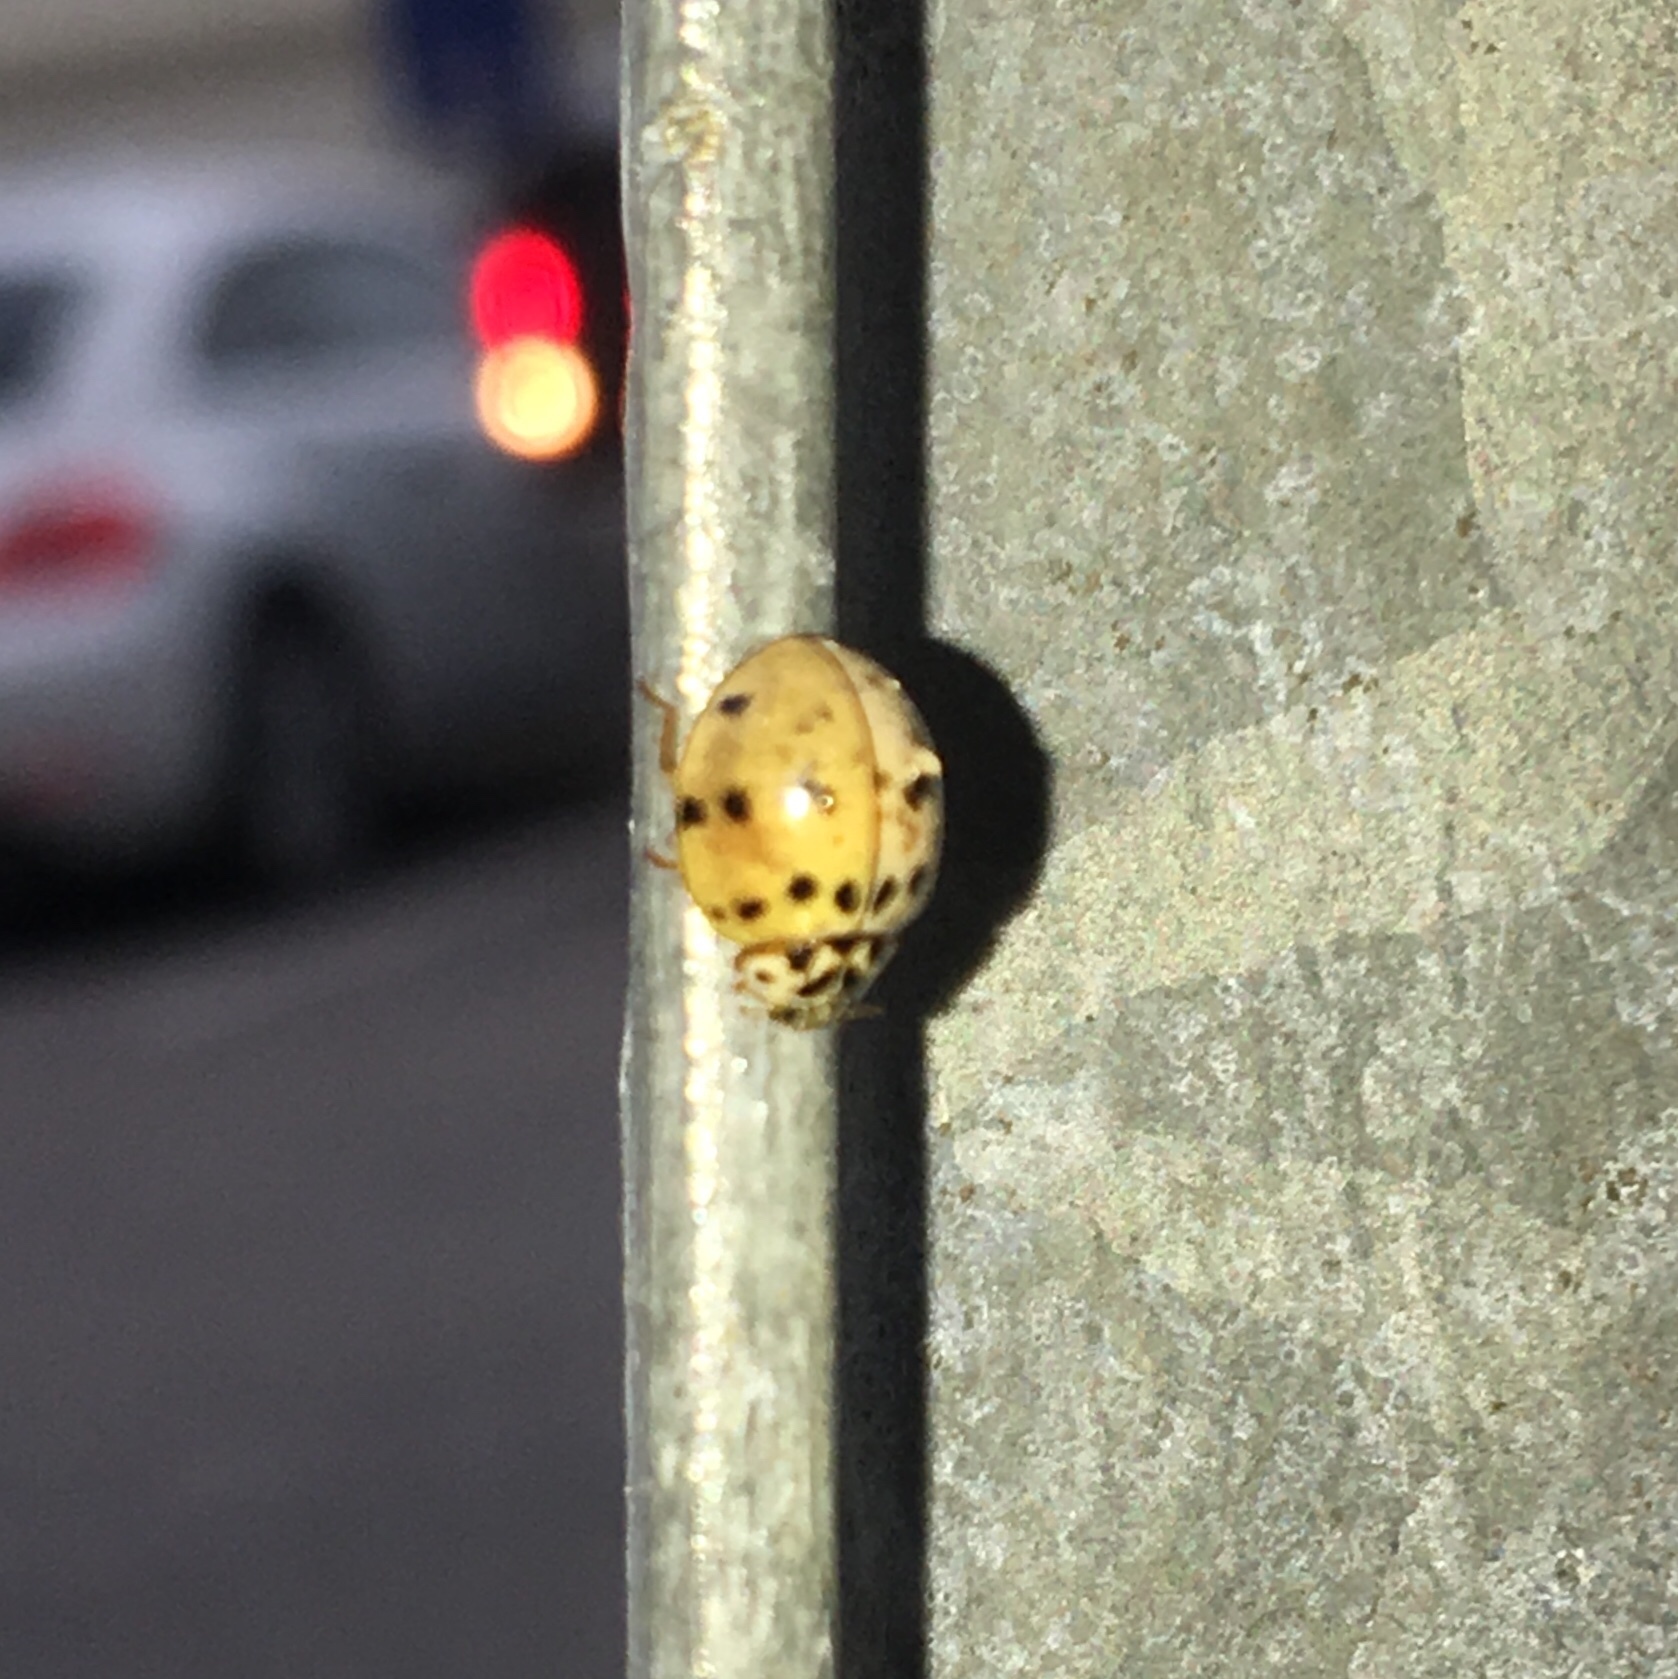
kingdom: Animalia
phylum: Arthropoda
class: Insecta
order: Coleoptera
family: Coccinellidae
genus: Olla
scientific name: Olla v-nigrum
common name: Ashy gray lady beetle
